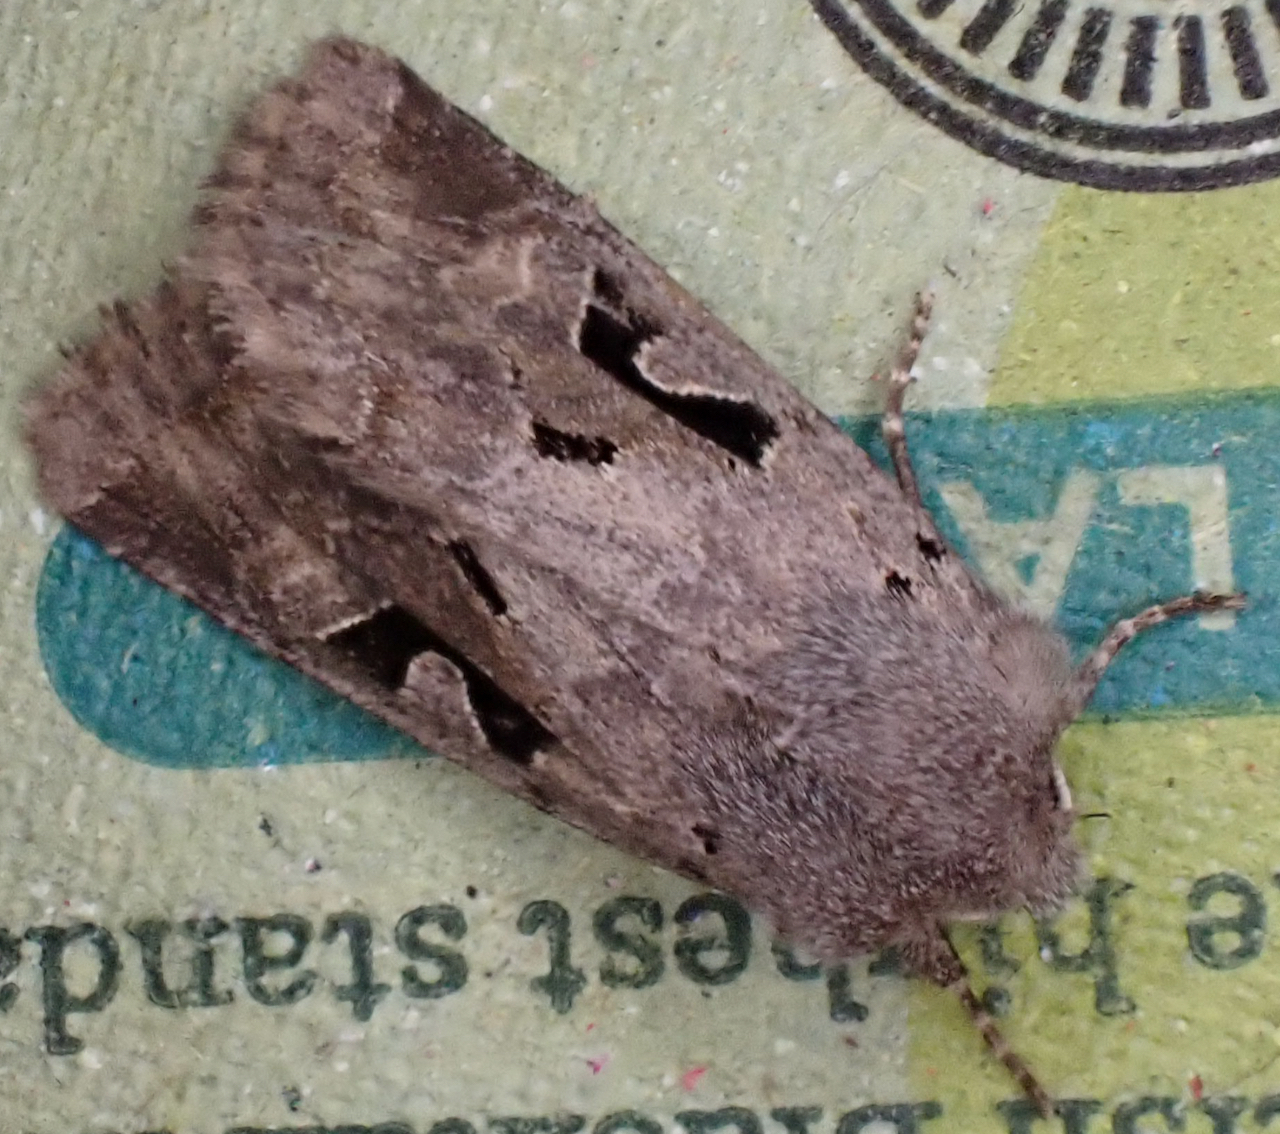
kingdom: Animalia
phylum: Arthropoda
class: Insecta
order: Lepidoptera
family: Noctuidae
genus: Orthosia
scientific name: Orthosia gothica
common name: Hebrew character
